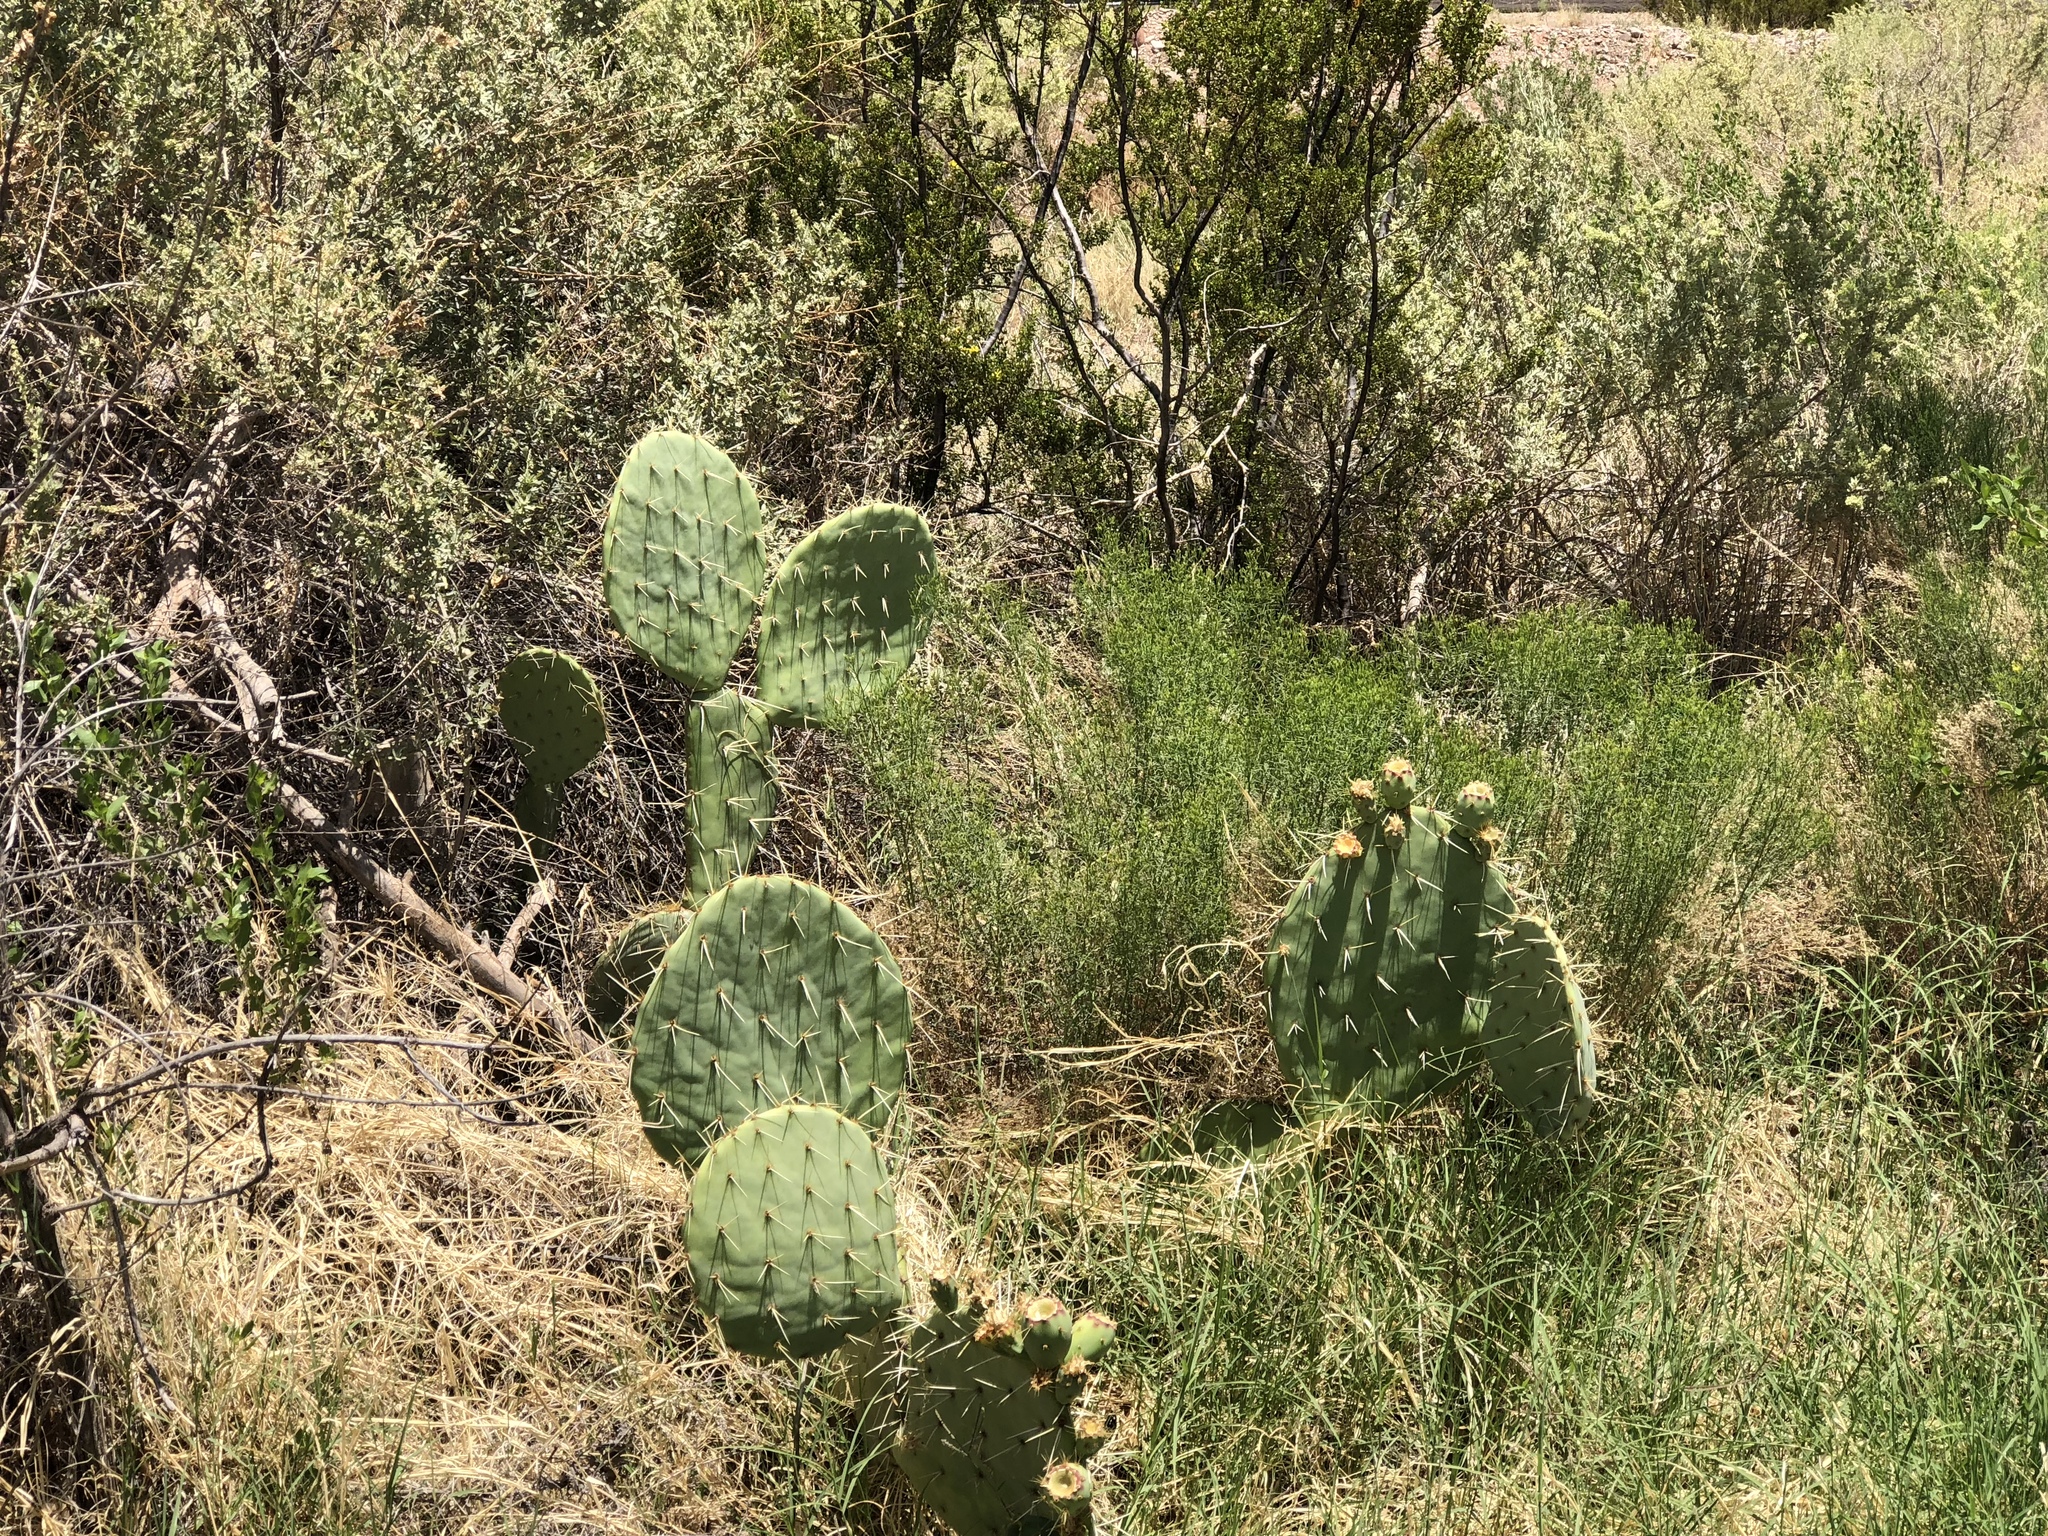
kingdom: Plantae
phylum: Tracheophyta
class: Magnoliopsida
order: Caryophyllales
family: Cactaceae
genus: Opuntia
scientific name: Opuntia engelmannii
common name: Cactus-apple
